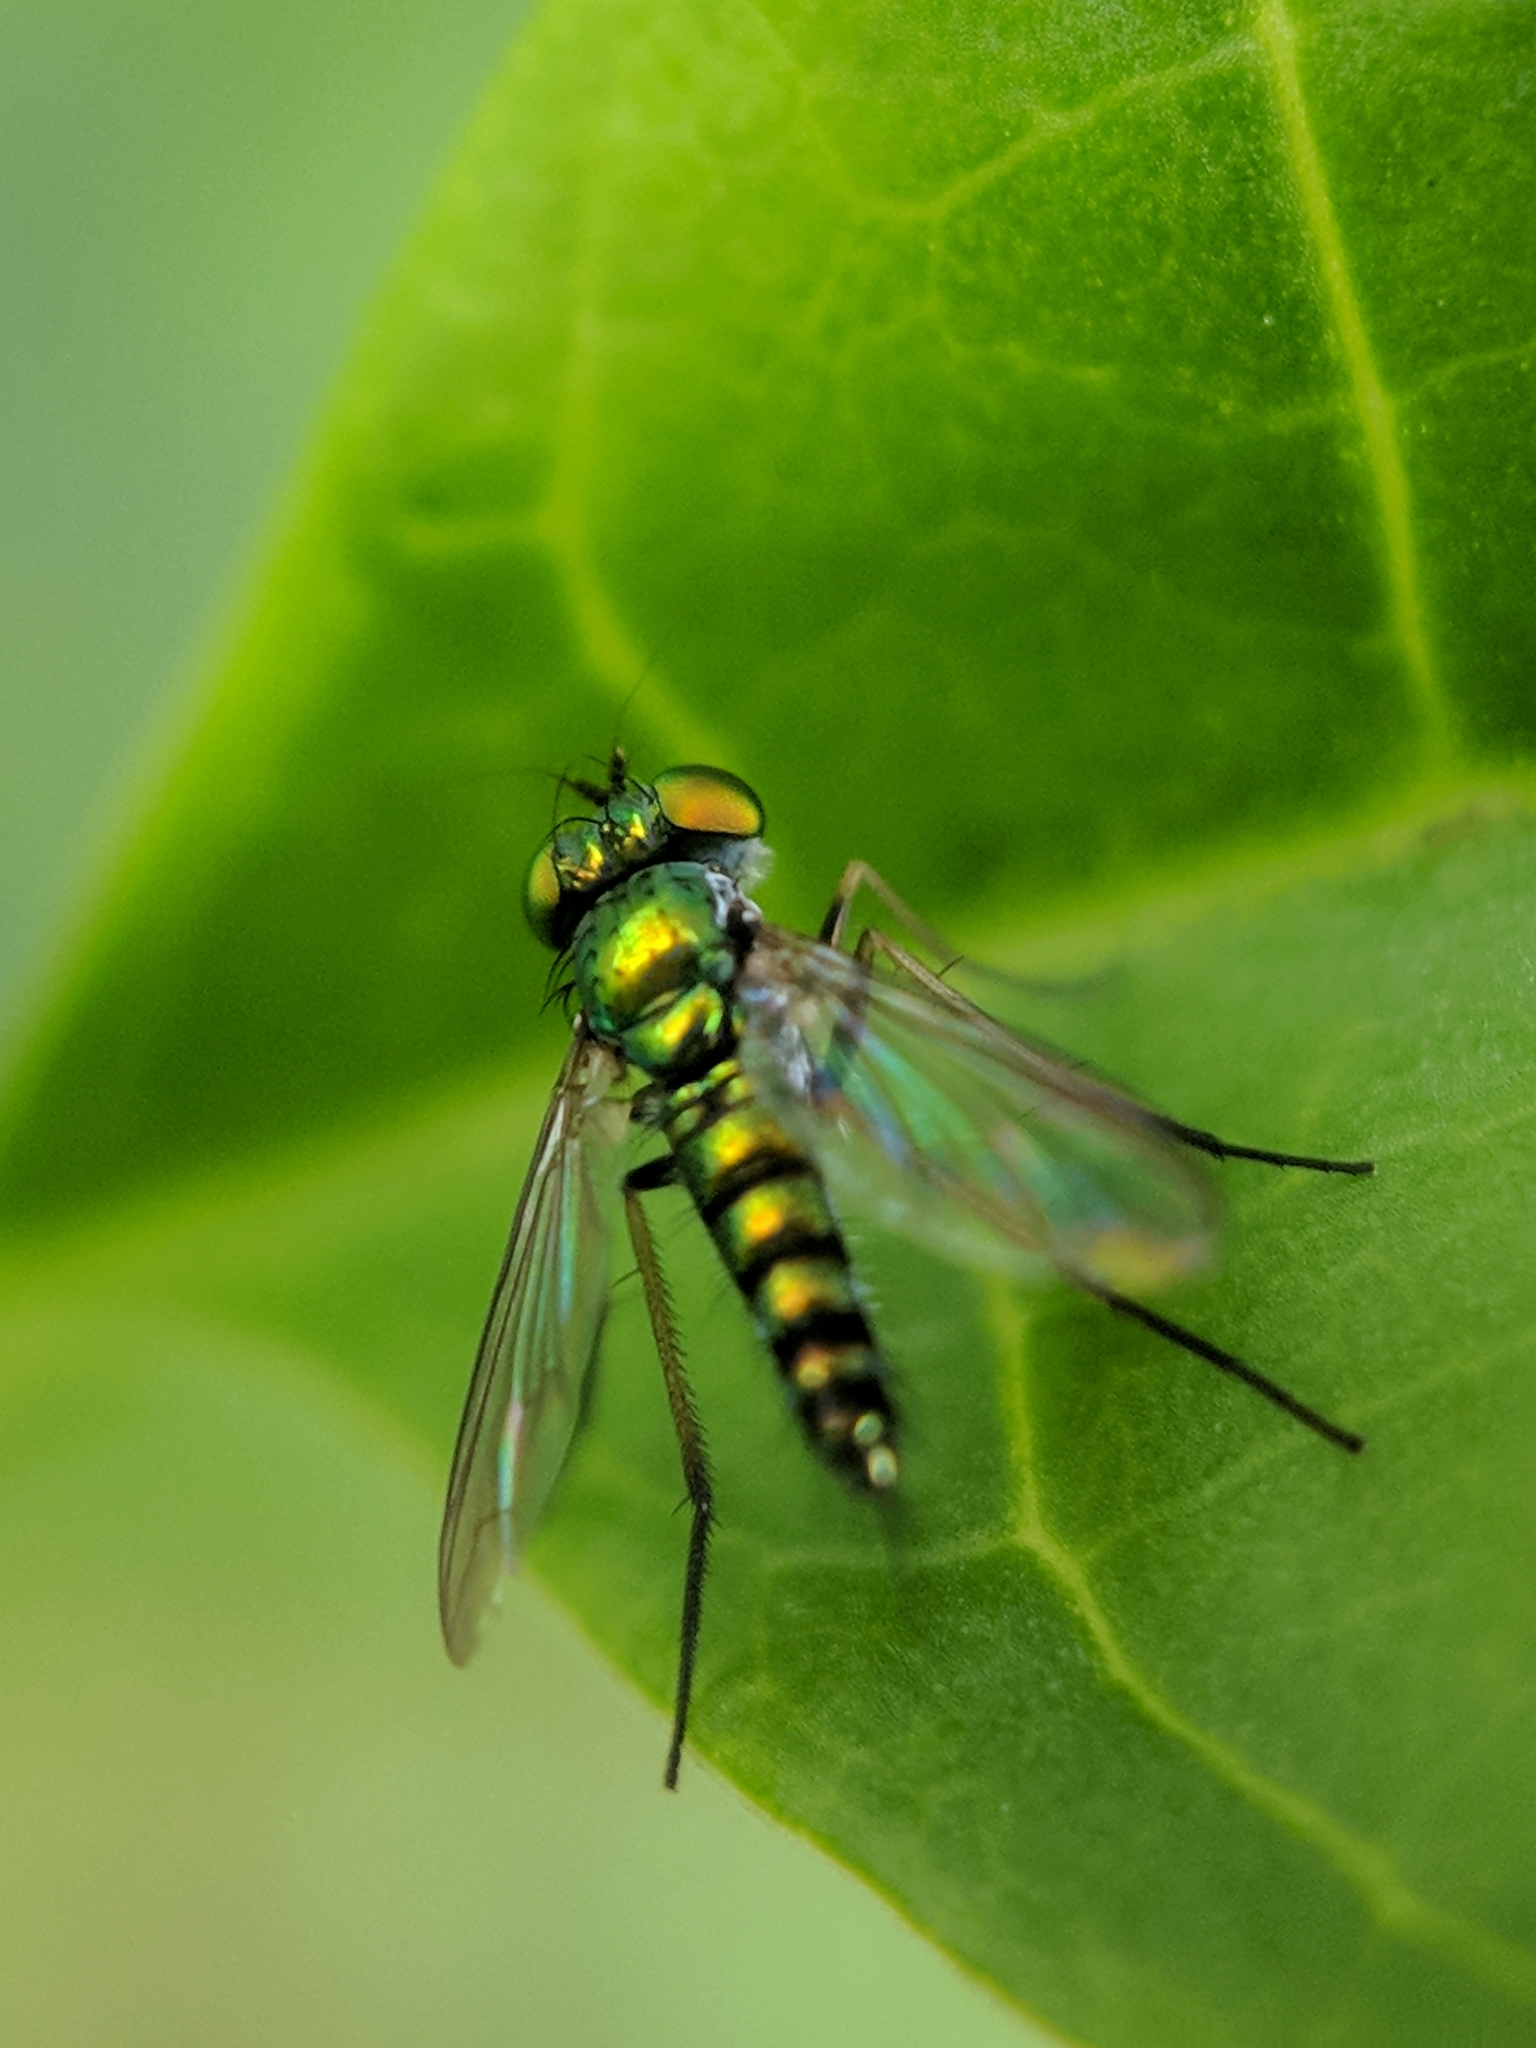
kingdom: Animalia
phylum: Arthropoda
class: Insecta
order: Diptera
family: Dolichopodidae
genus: Condylostylus
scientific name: Condylostylus caudatus
